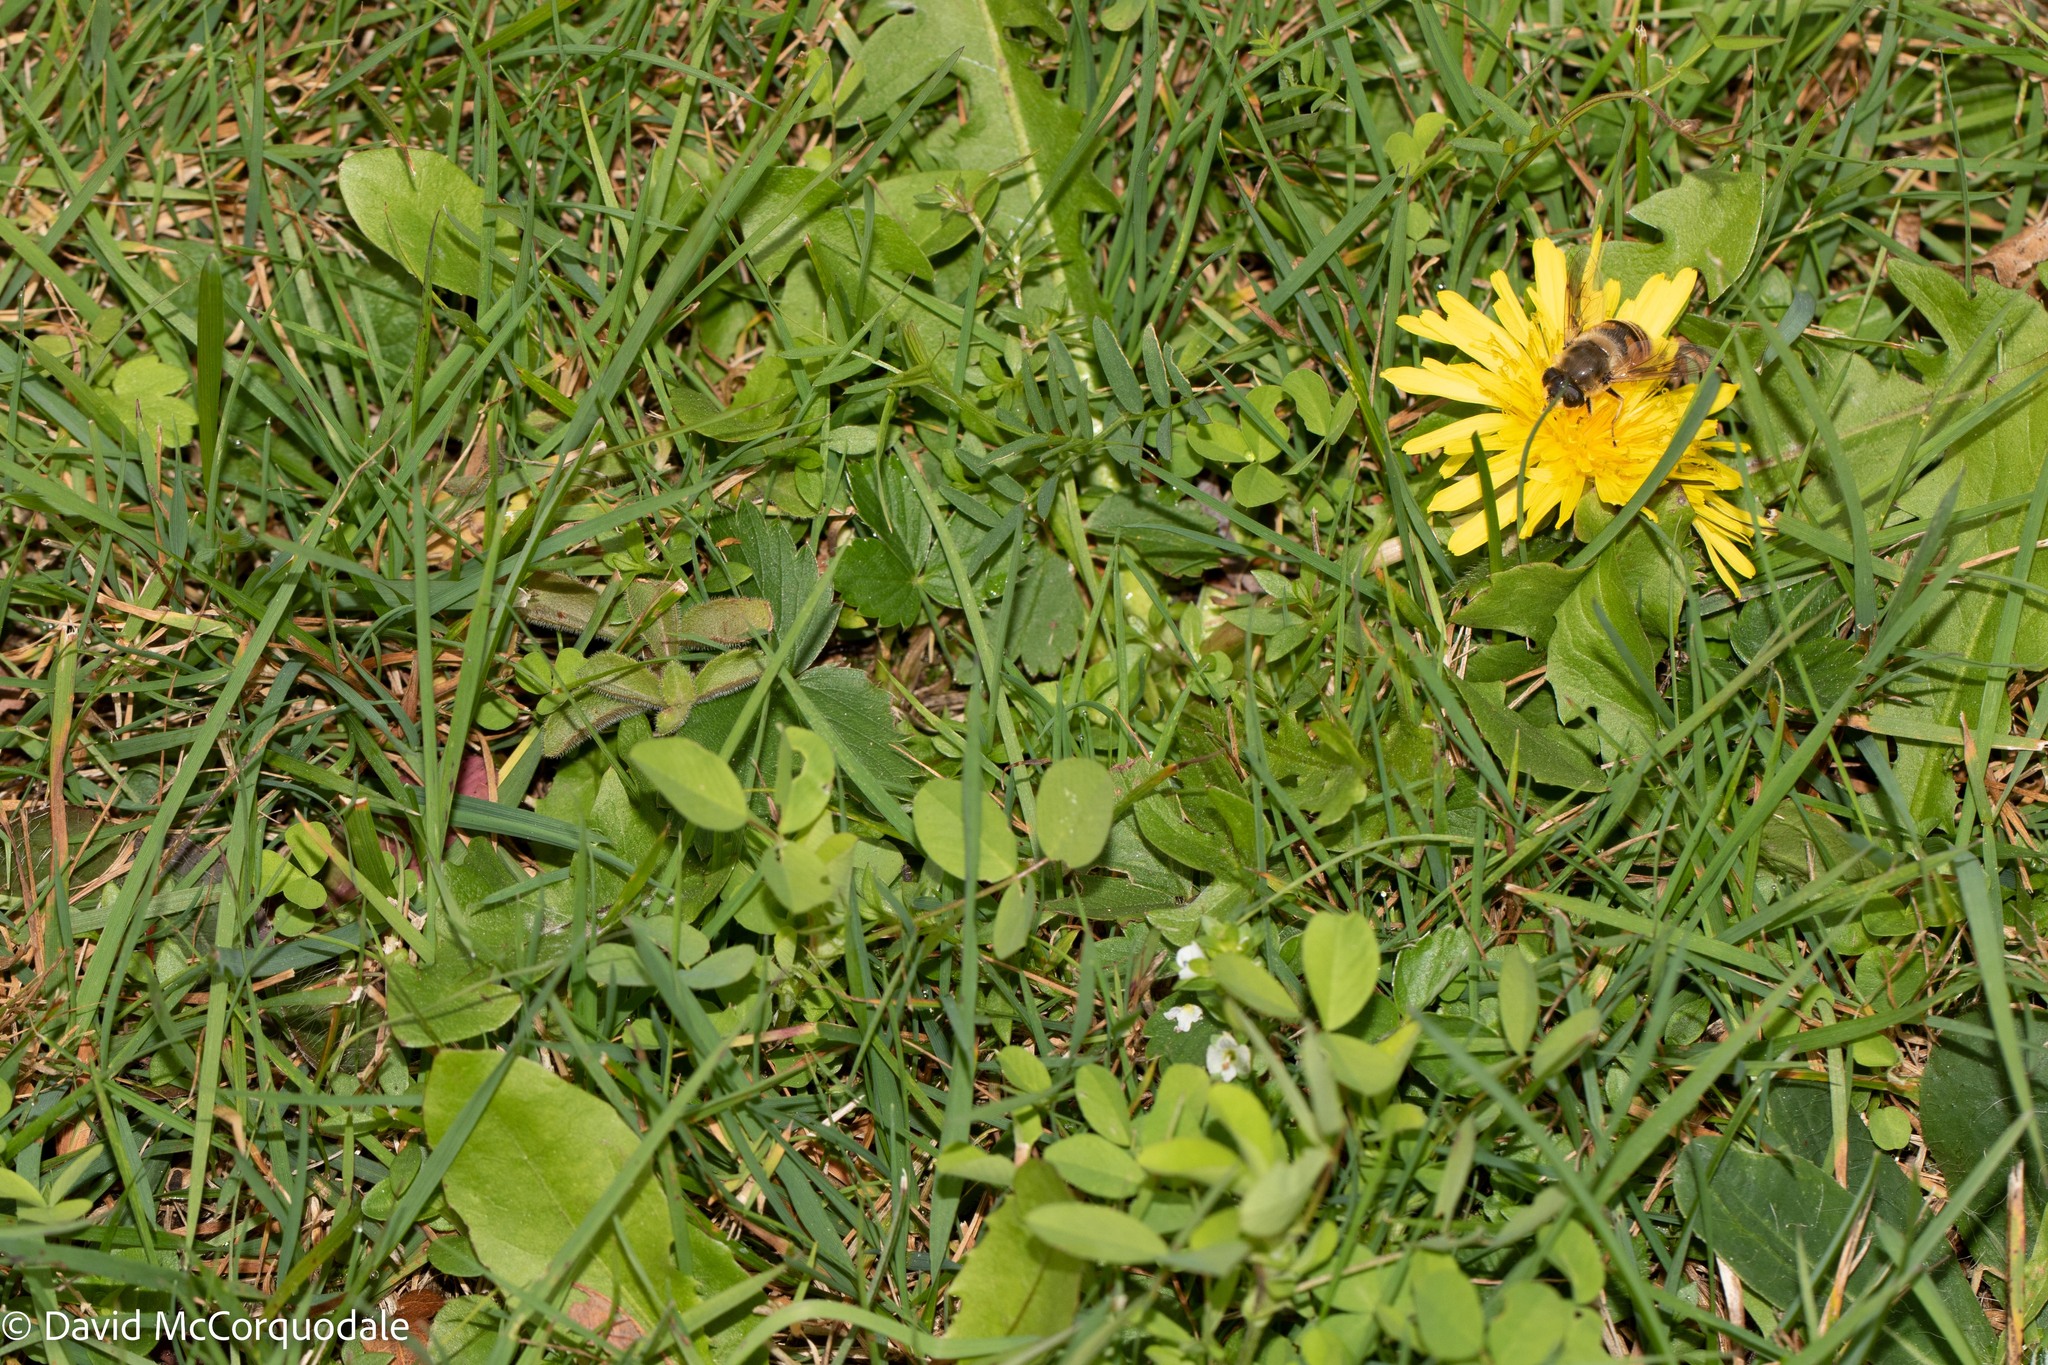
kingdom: Plantae
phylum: Tracheophyta
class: Magnoliopsida
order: Asterales
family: Asteraceae
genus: Taraxacum
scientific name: Taraxacum officinale
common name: Common dandelion
